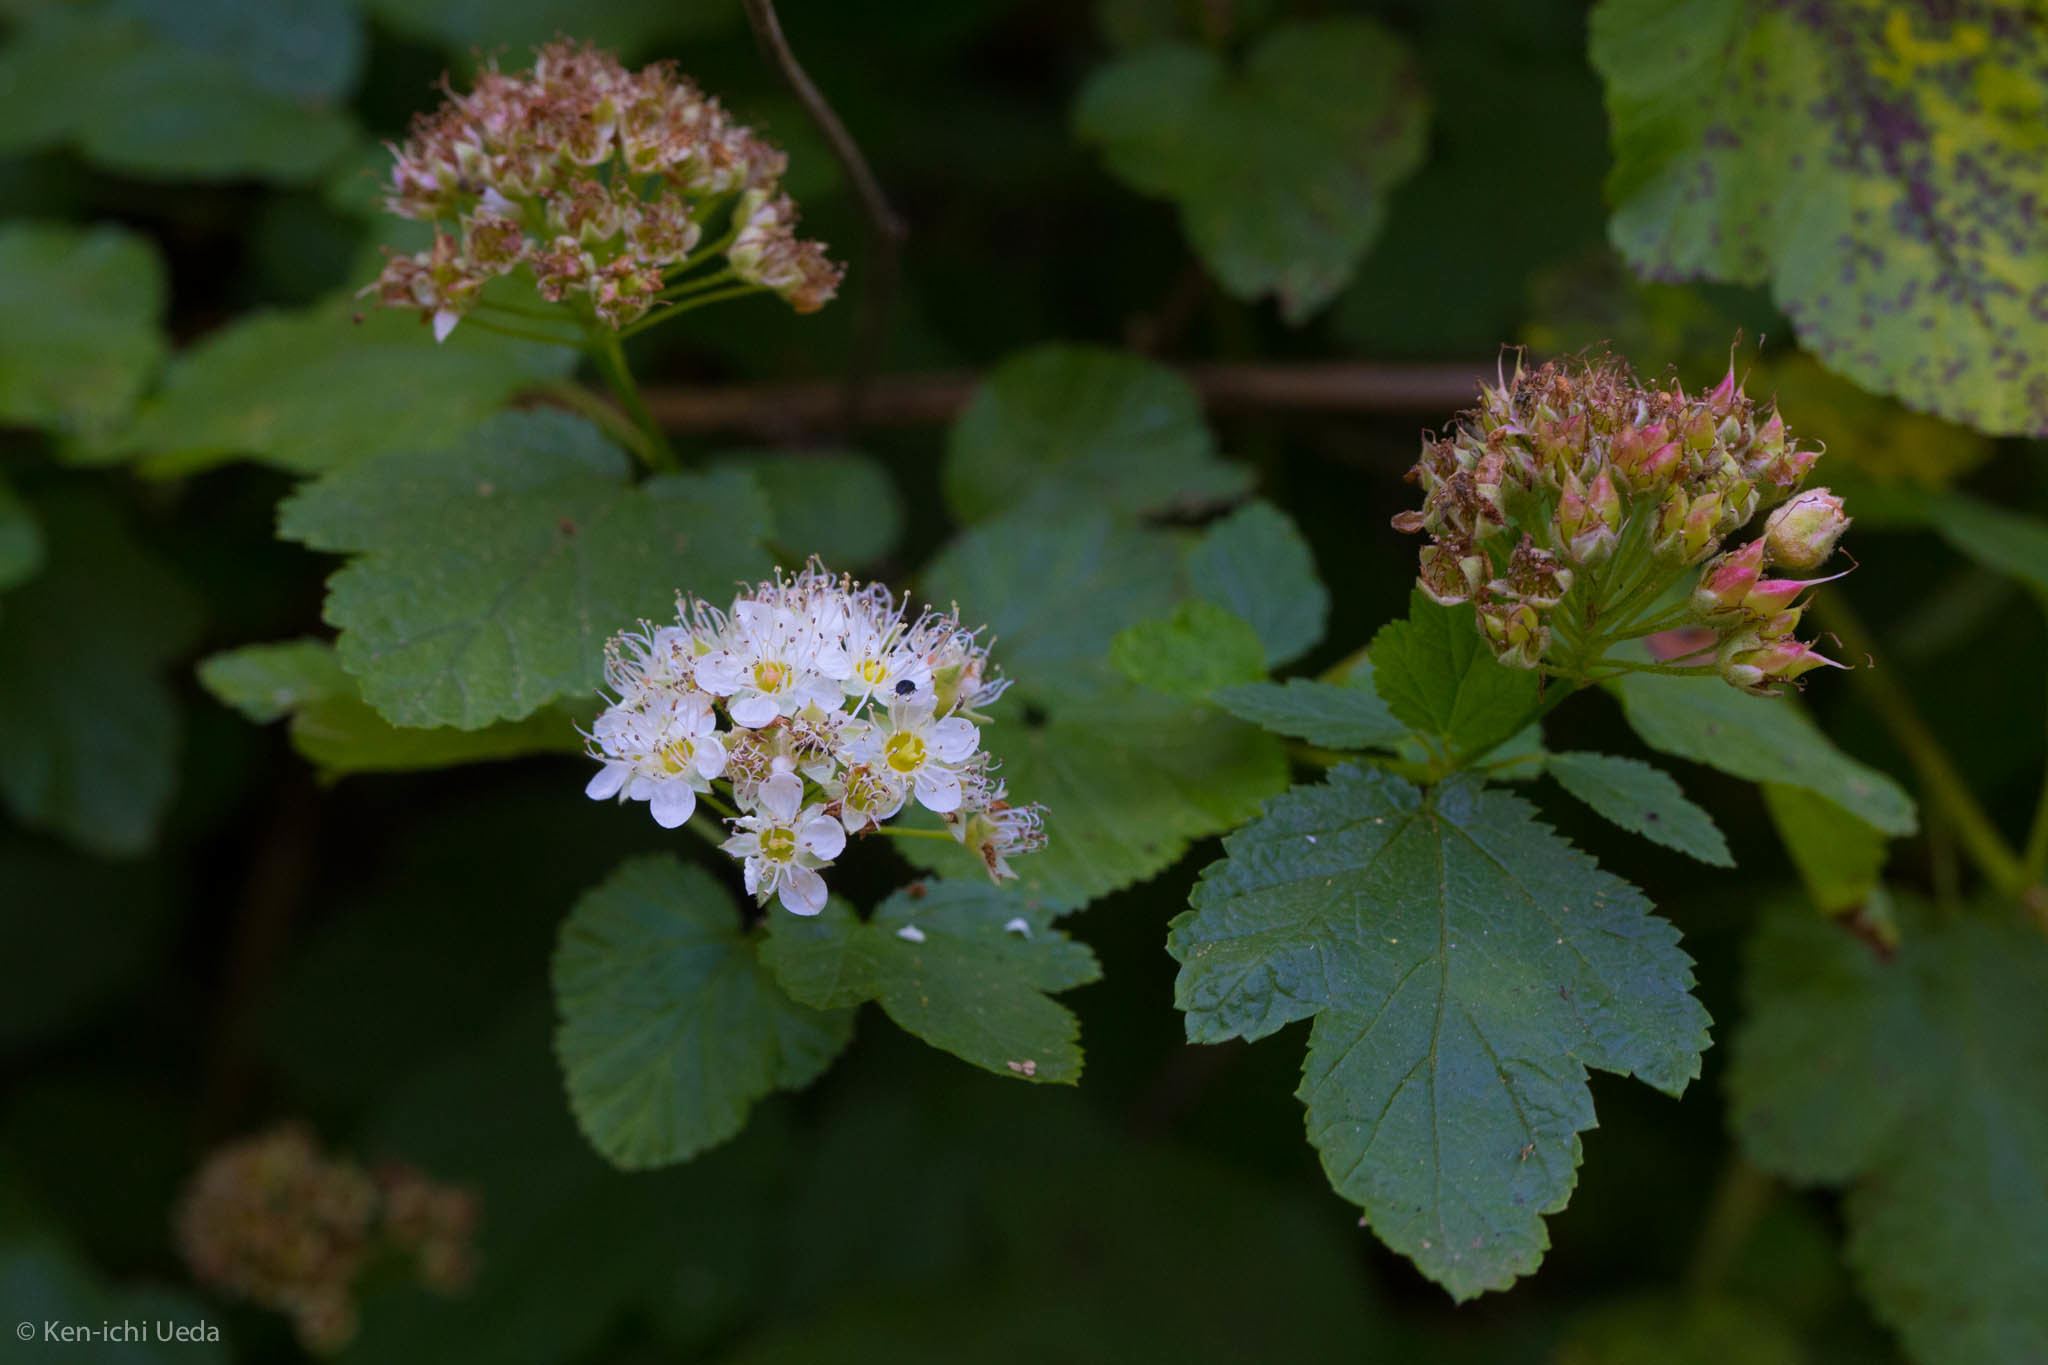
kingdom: Plantae
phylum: Tracheophyta
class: Magnoliopsida
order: Rosales
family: Rosaceae
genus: Physocarpus
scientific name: Physocarpus capitatus
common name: Pacific ninebark
